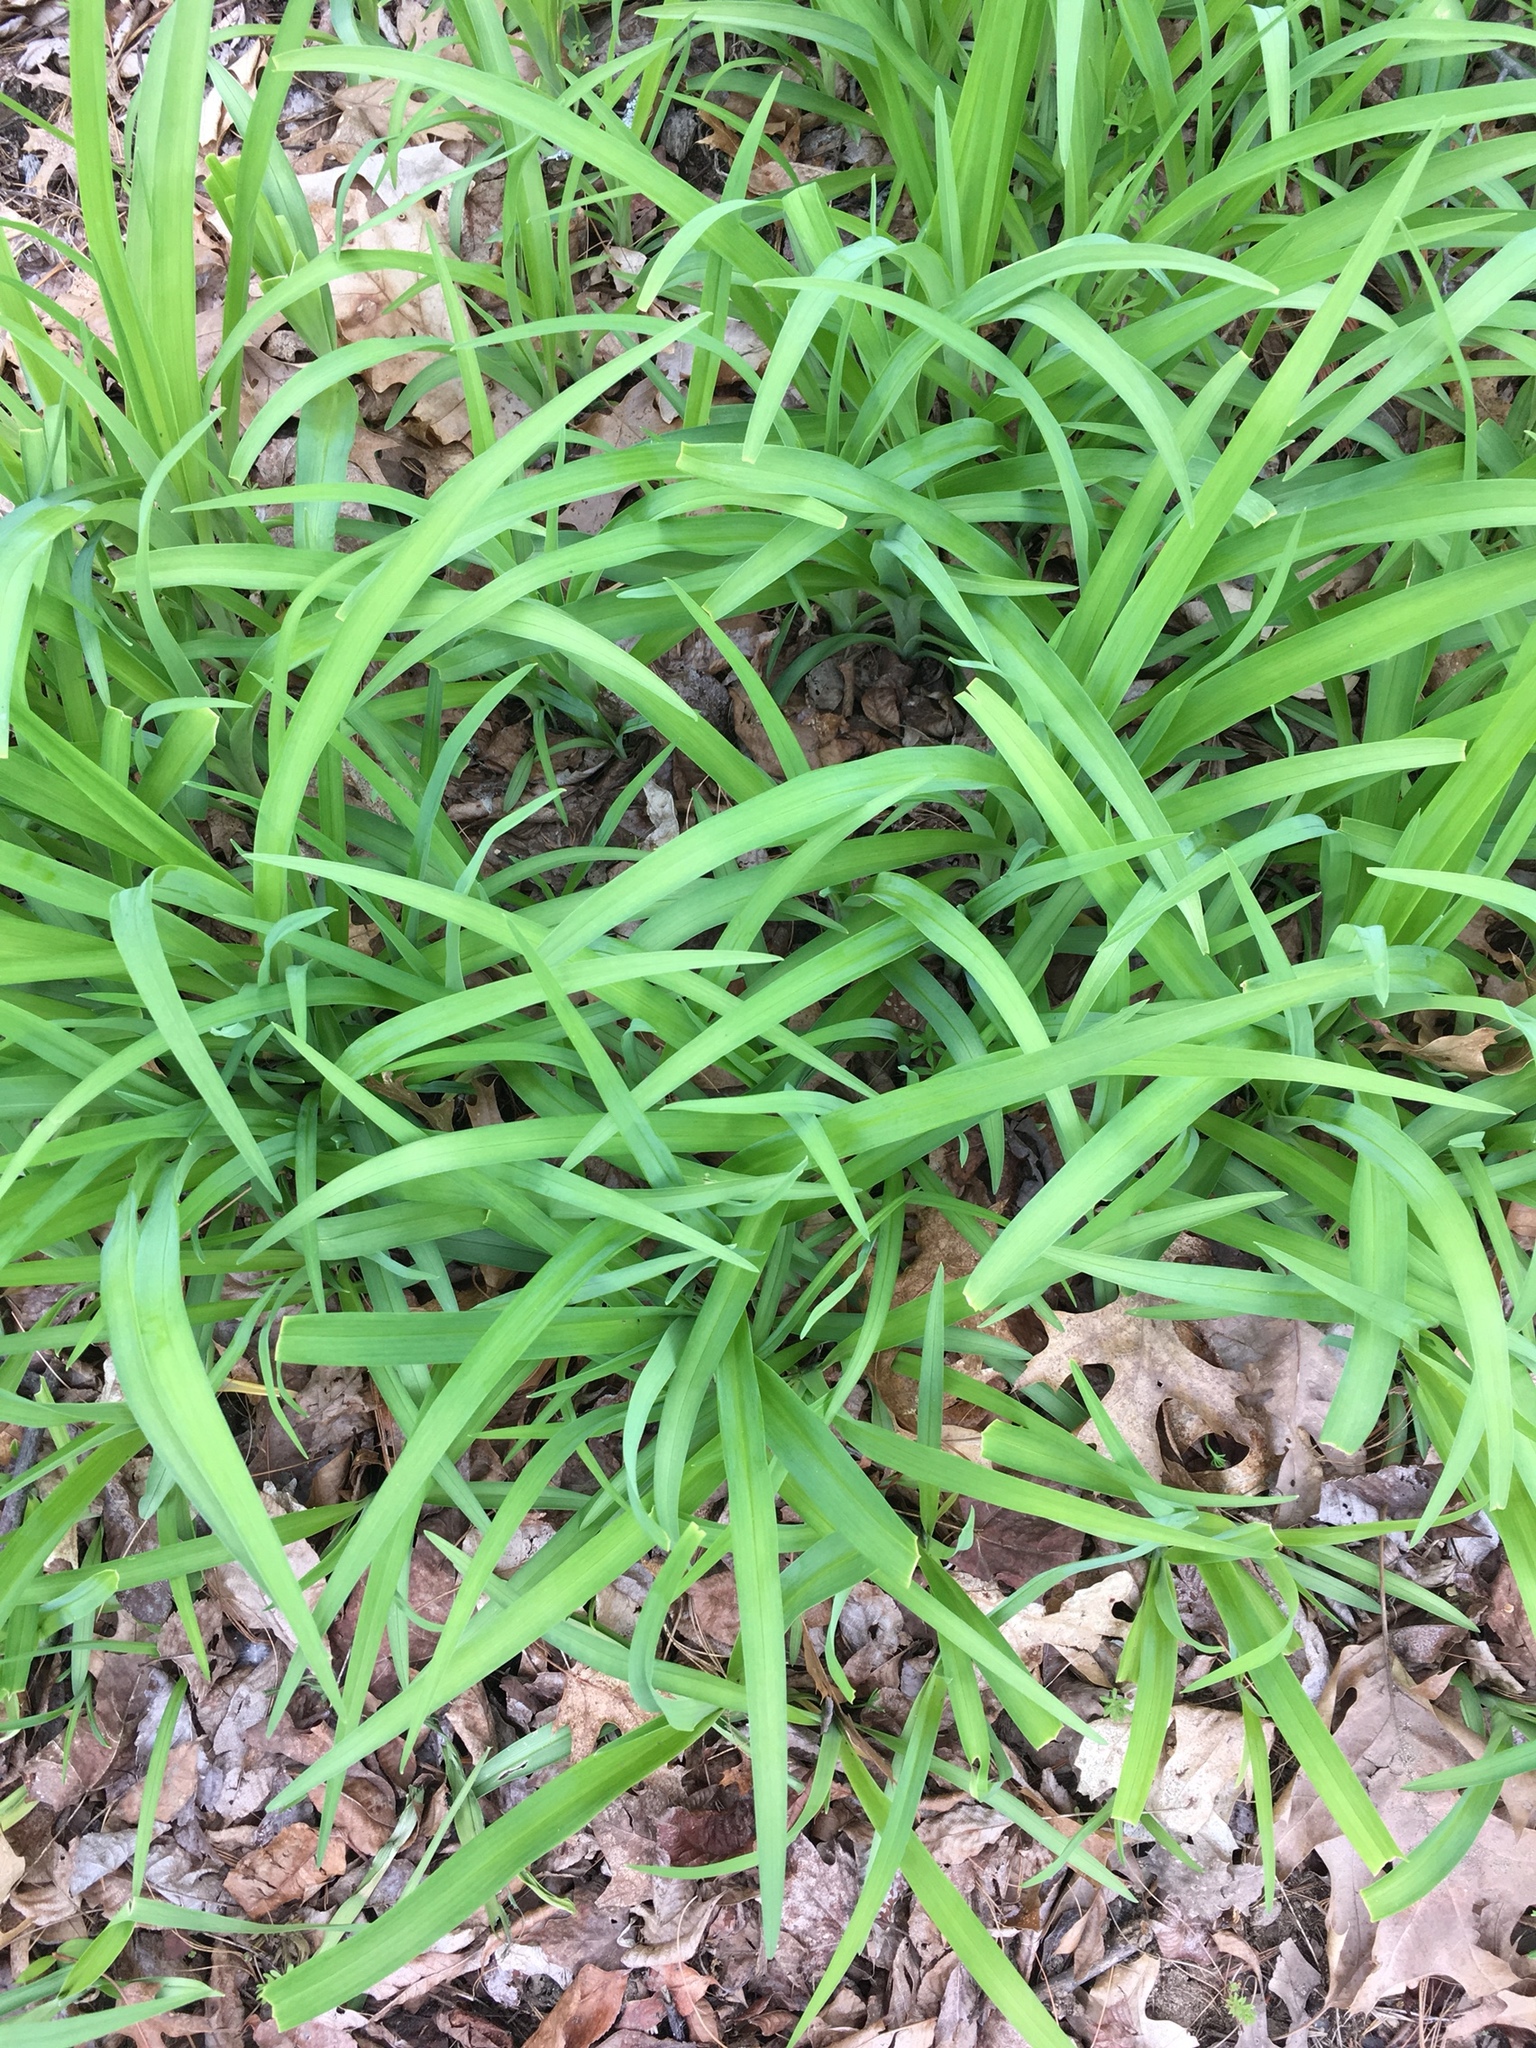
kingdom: Plantae
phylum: Tracheophyta
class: Liliopsida
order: Asparagales
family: Asphodelaceae
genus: Hemerocallis
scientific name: Hemerocallis fulva
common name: Orange day-lily
